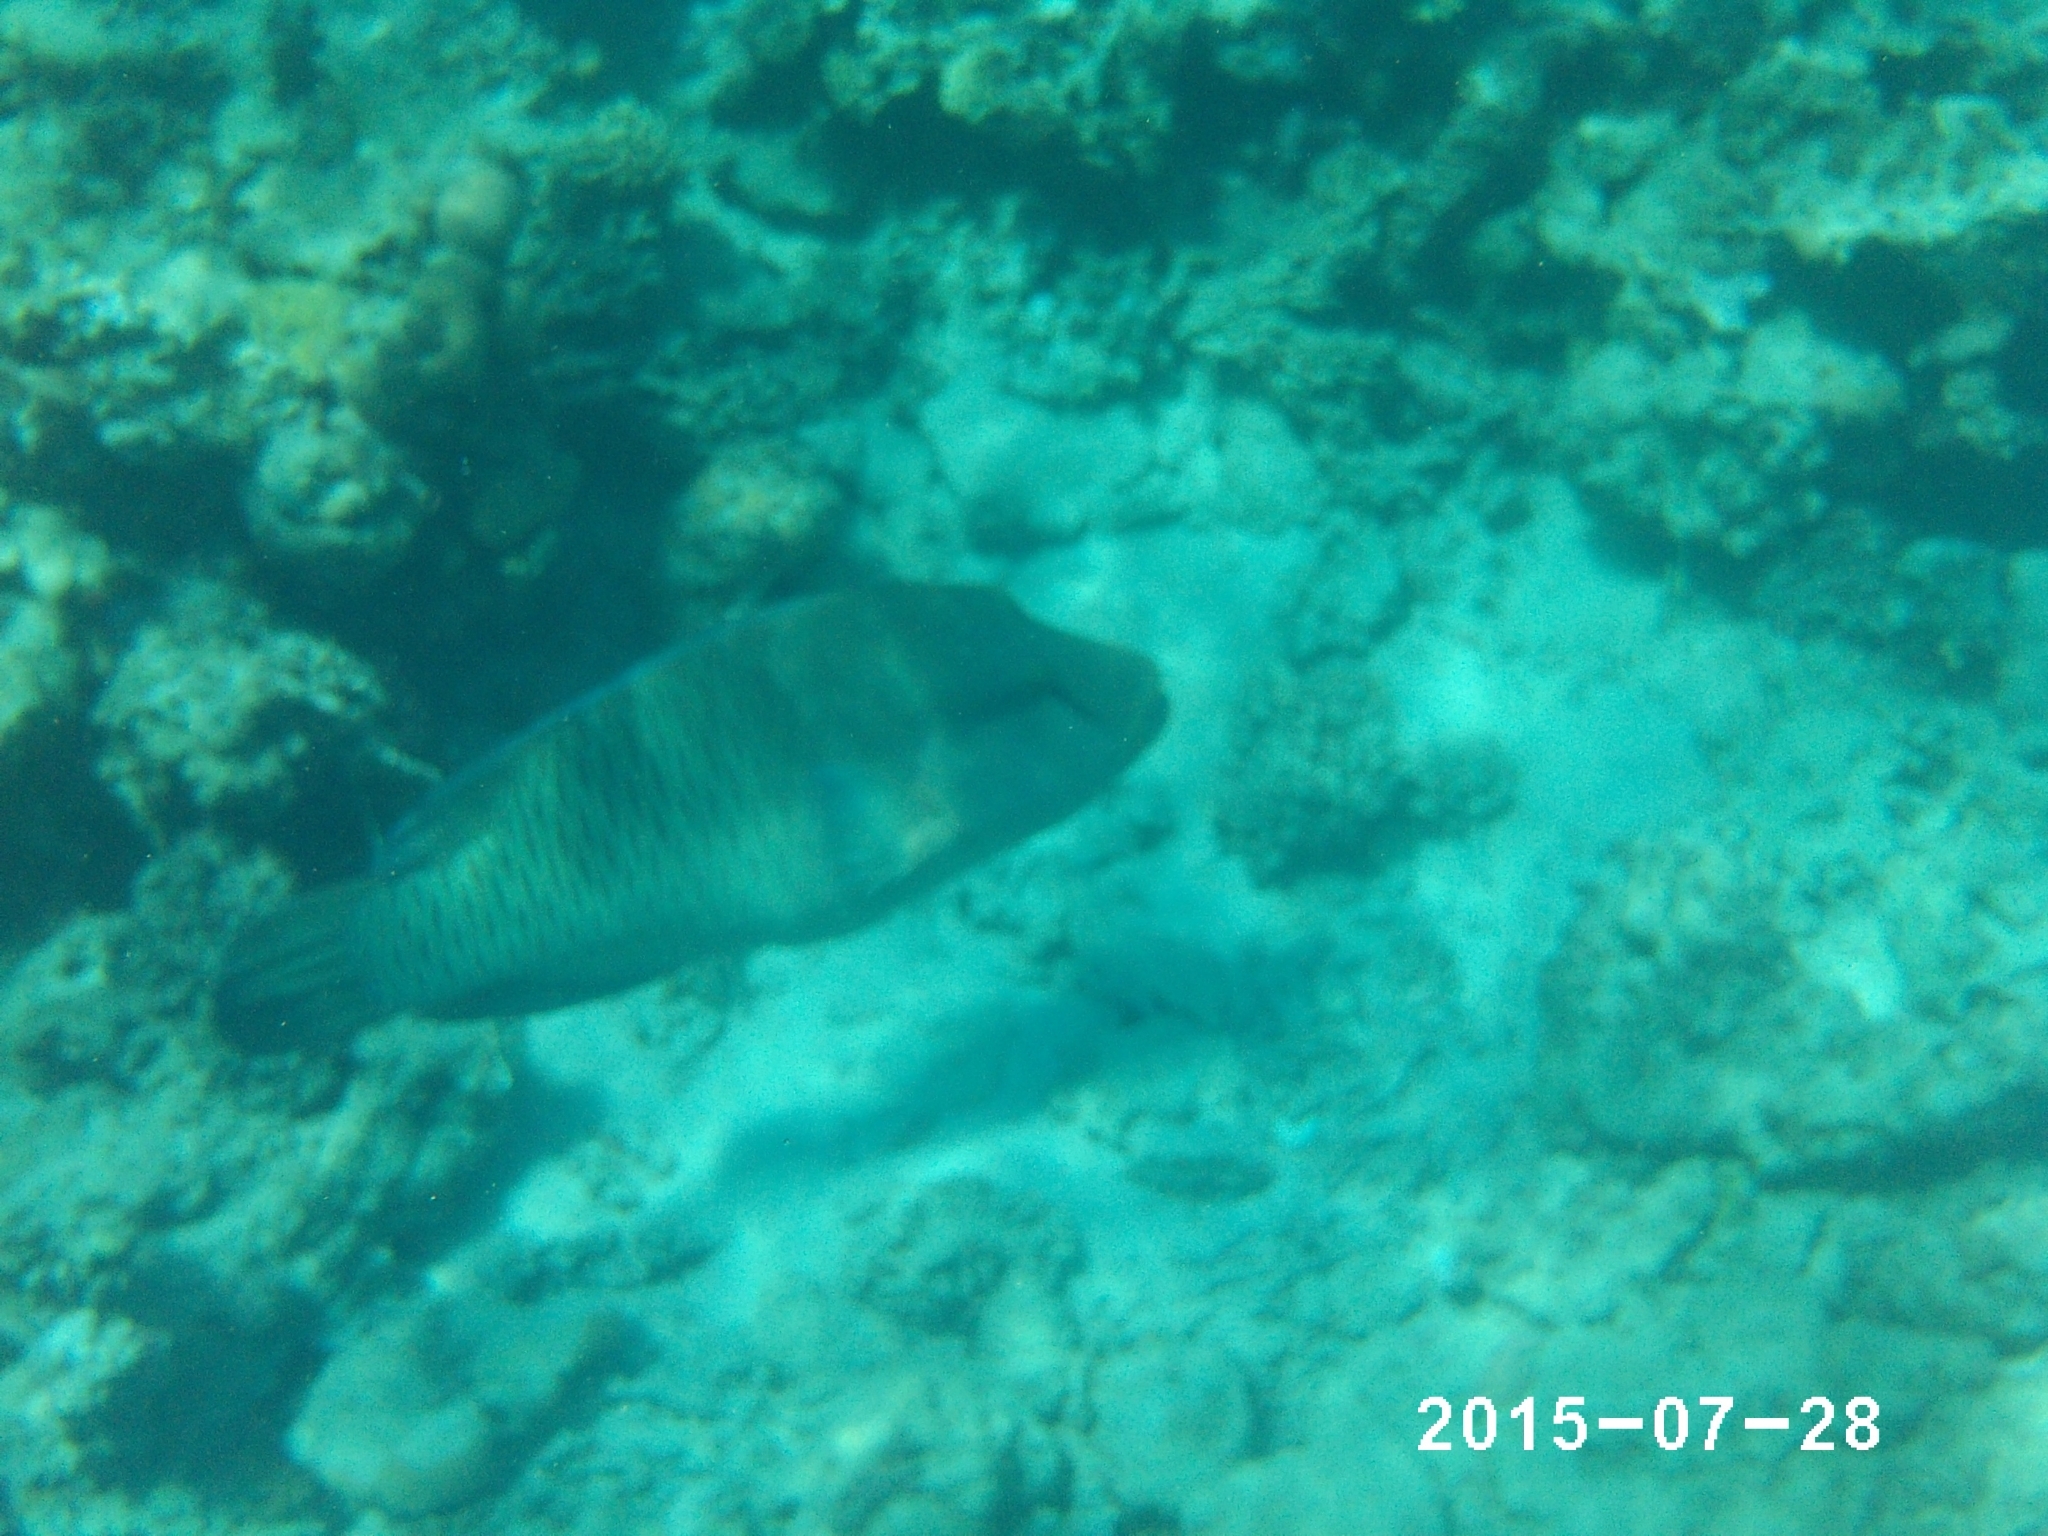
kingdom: Animalia
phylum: Chordata
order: Perciformes
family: Labridae
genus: Cheilinus
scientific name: Cheilinus undulatus
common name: Humphead wrasse
